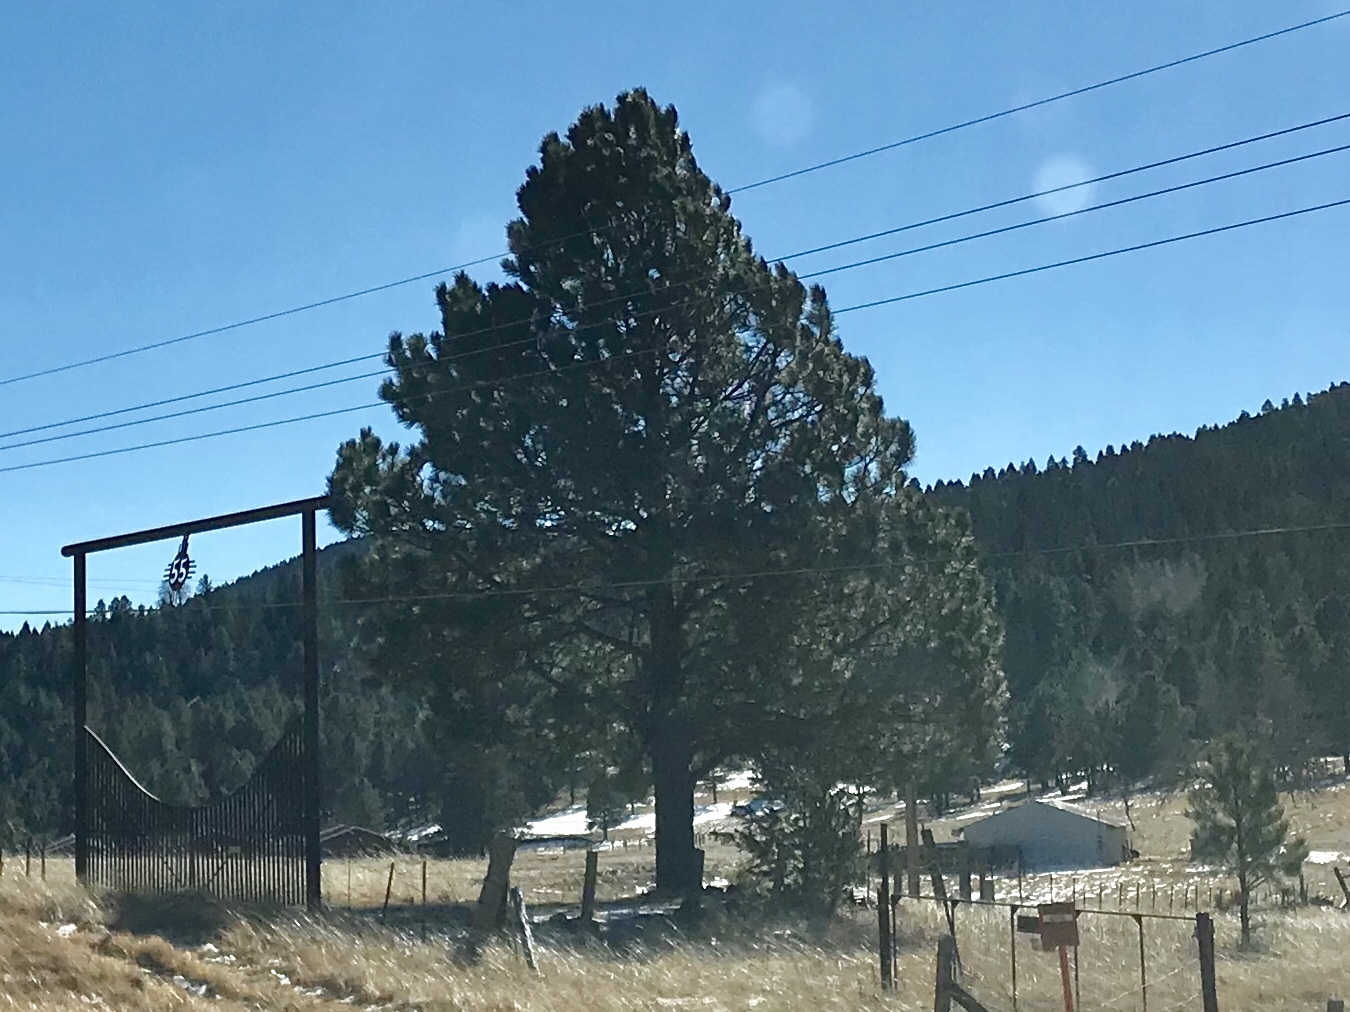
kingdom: Plantae
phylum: Tracheophyta
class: Pinopsida
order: Pinales
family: Pinaceae
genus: Pinus
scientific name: Pinus ponderosa
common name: Western yellow-pine
